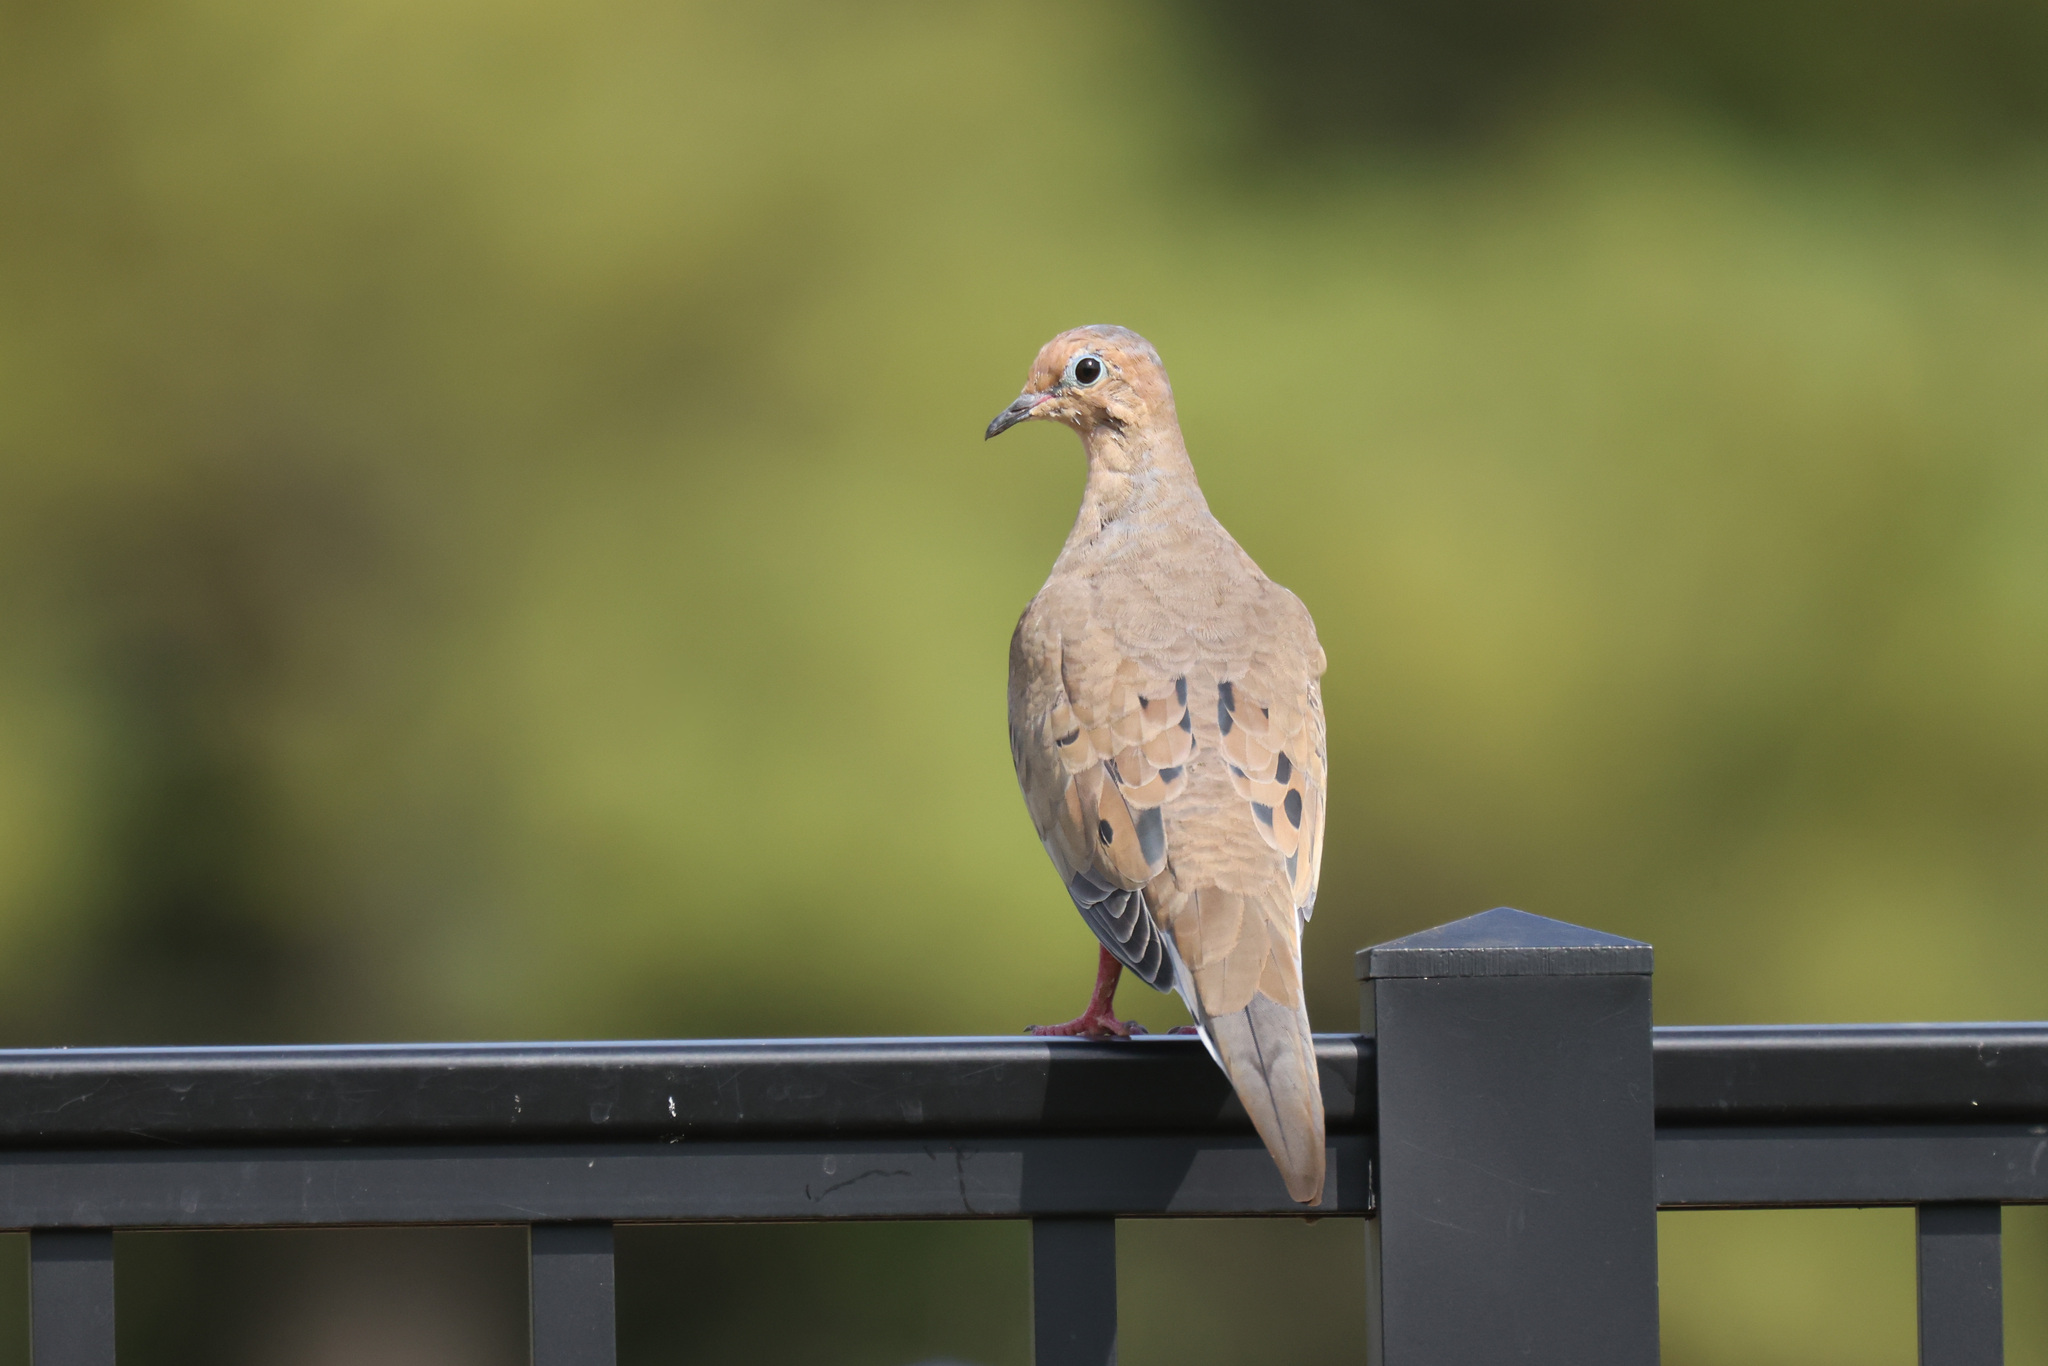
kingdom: Animalia
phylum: Chordata
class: Aves
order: Columbiformes
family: Columbidae
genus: Zenaida
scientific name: Zenaida macroura
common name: Mourning dove
